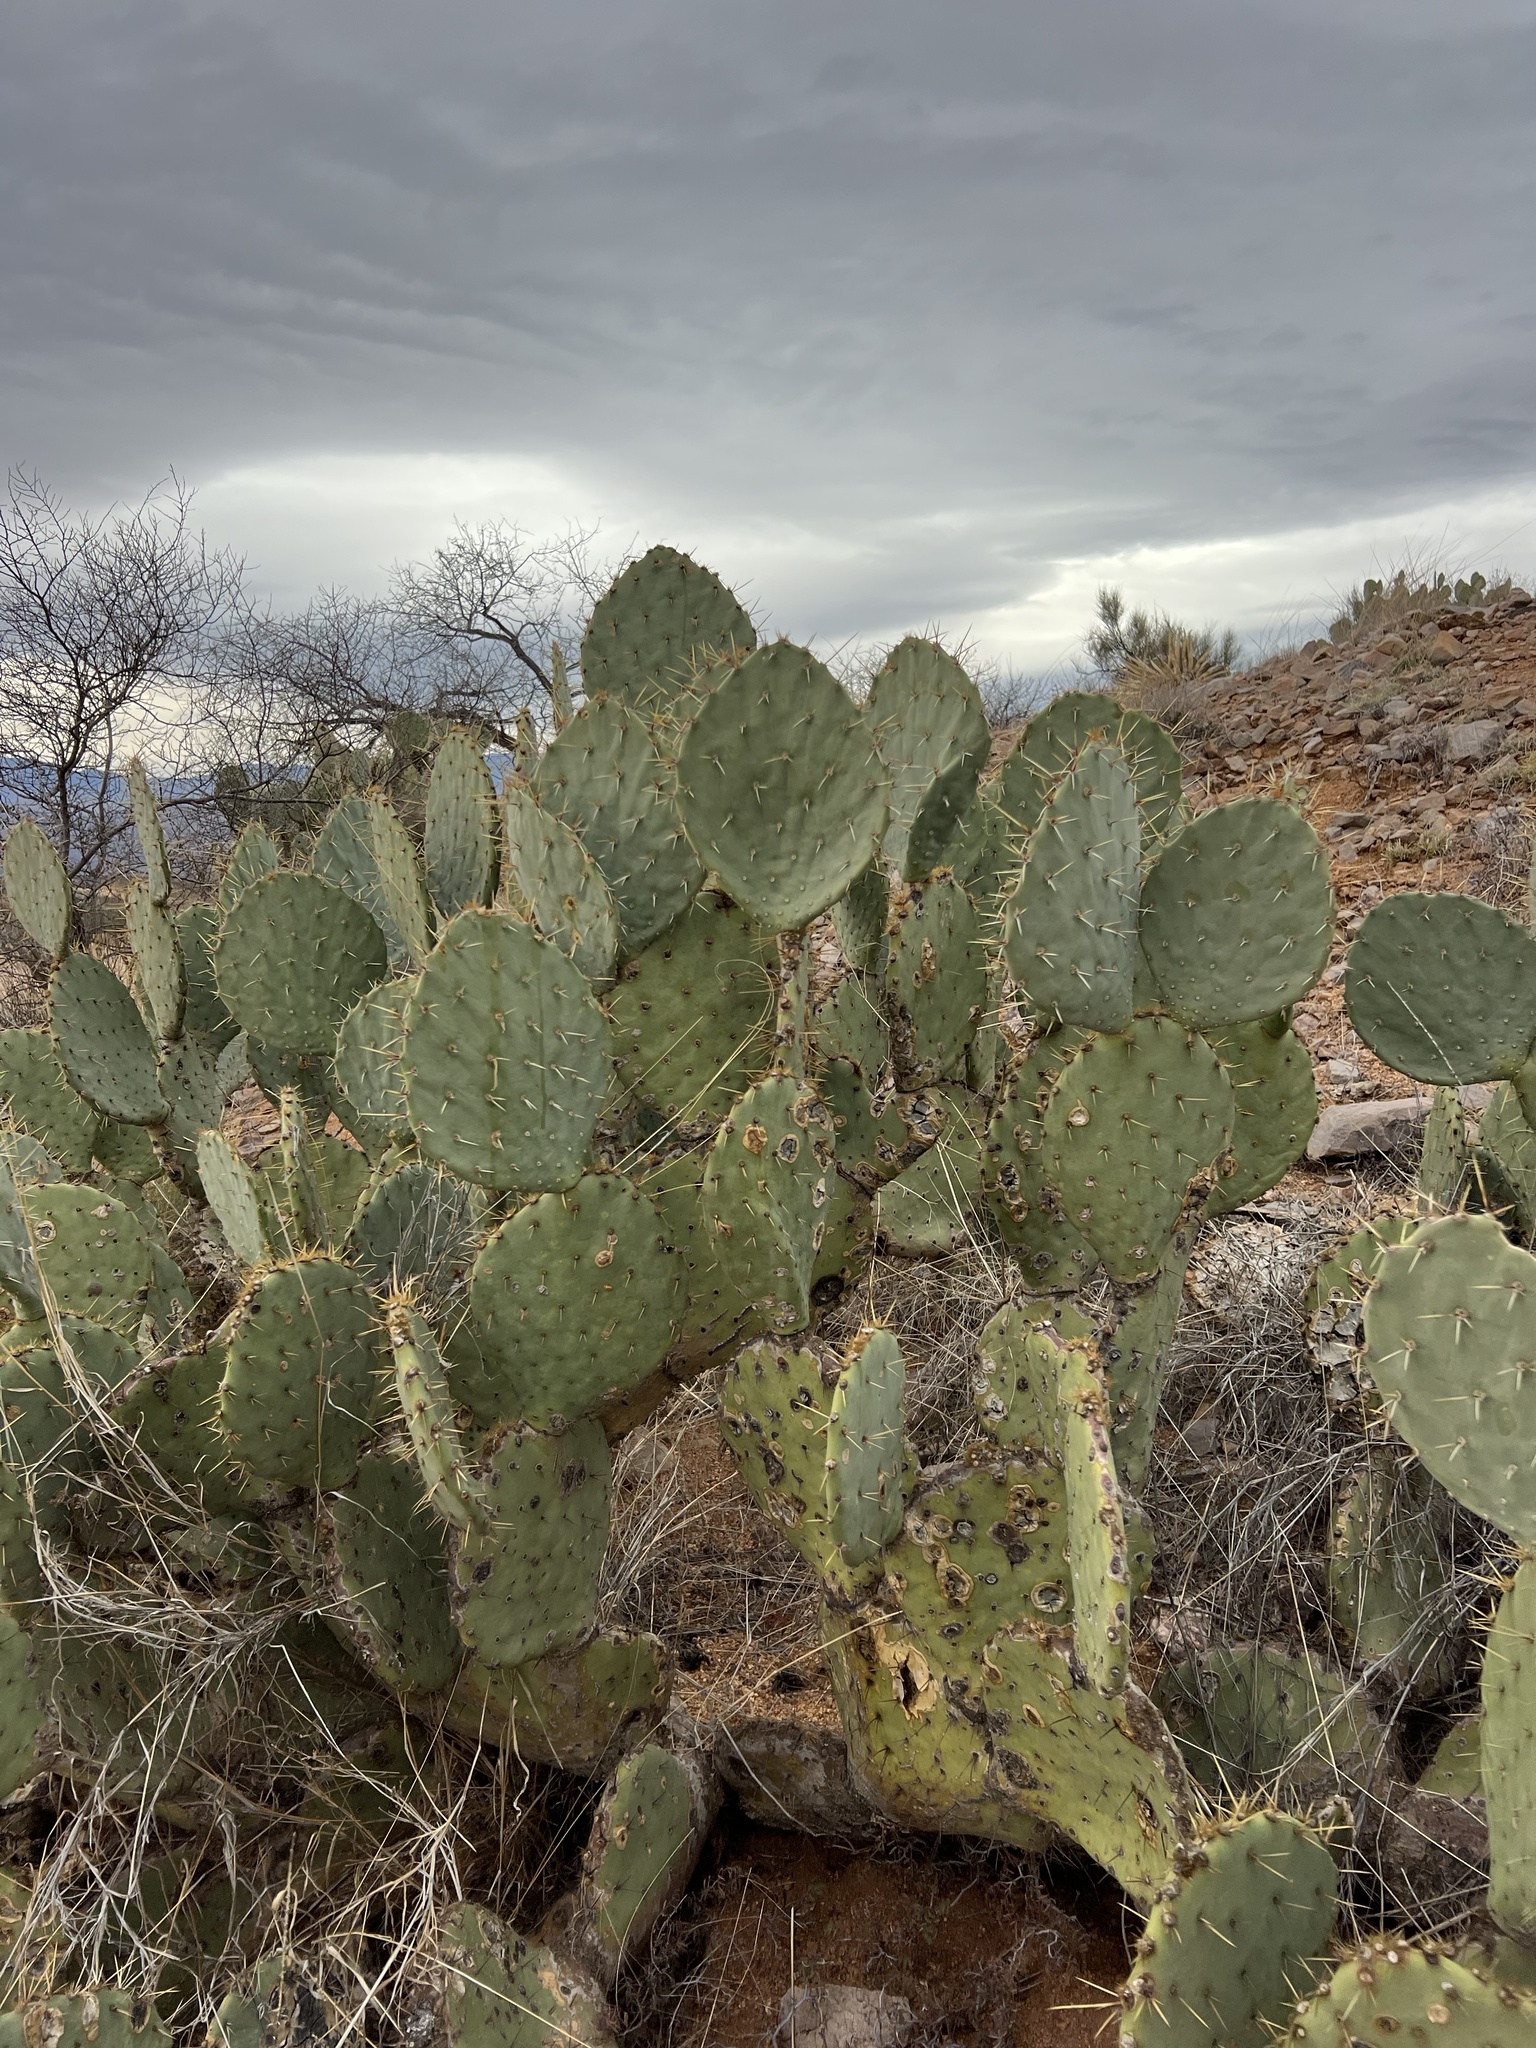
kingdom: Plantae
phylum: Tracheophyta
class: Magnoliopsida
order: Caryophyllales
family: Cactaceae
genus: Opuntia
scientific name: Opuntia engelmannii
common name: Cactus-apple
